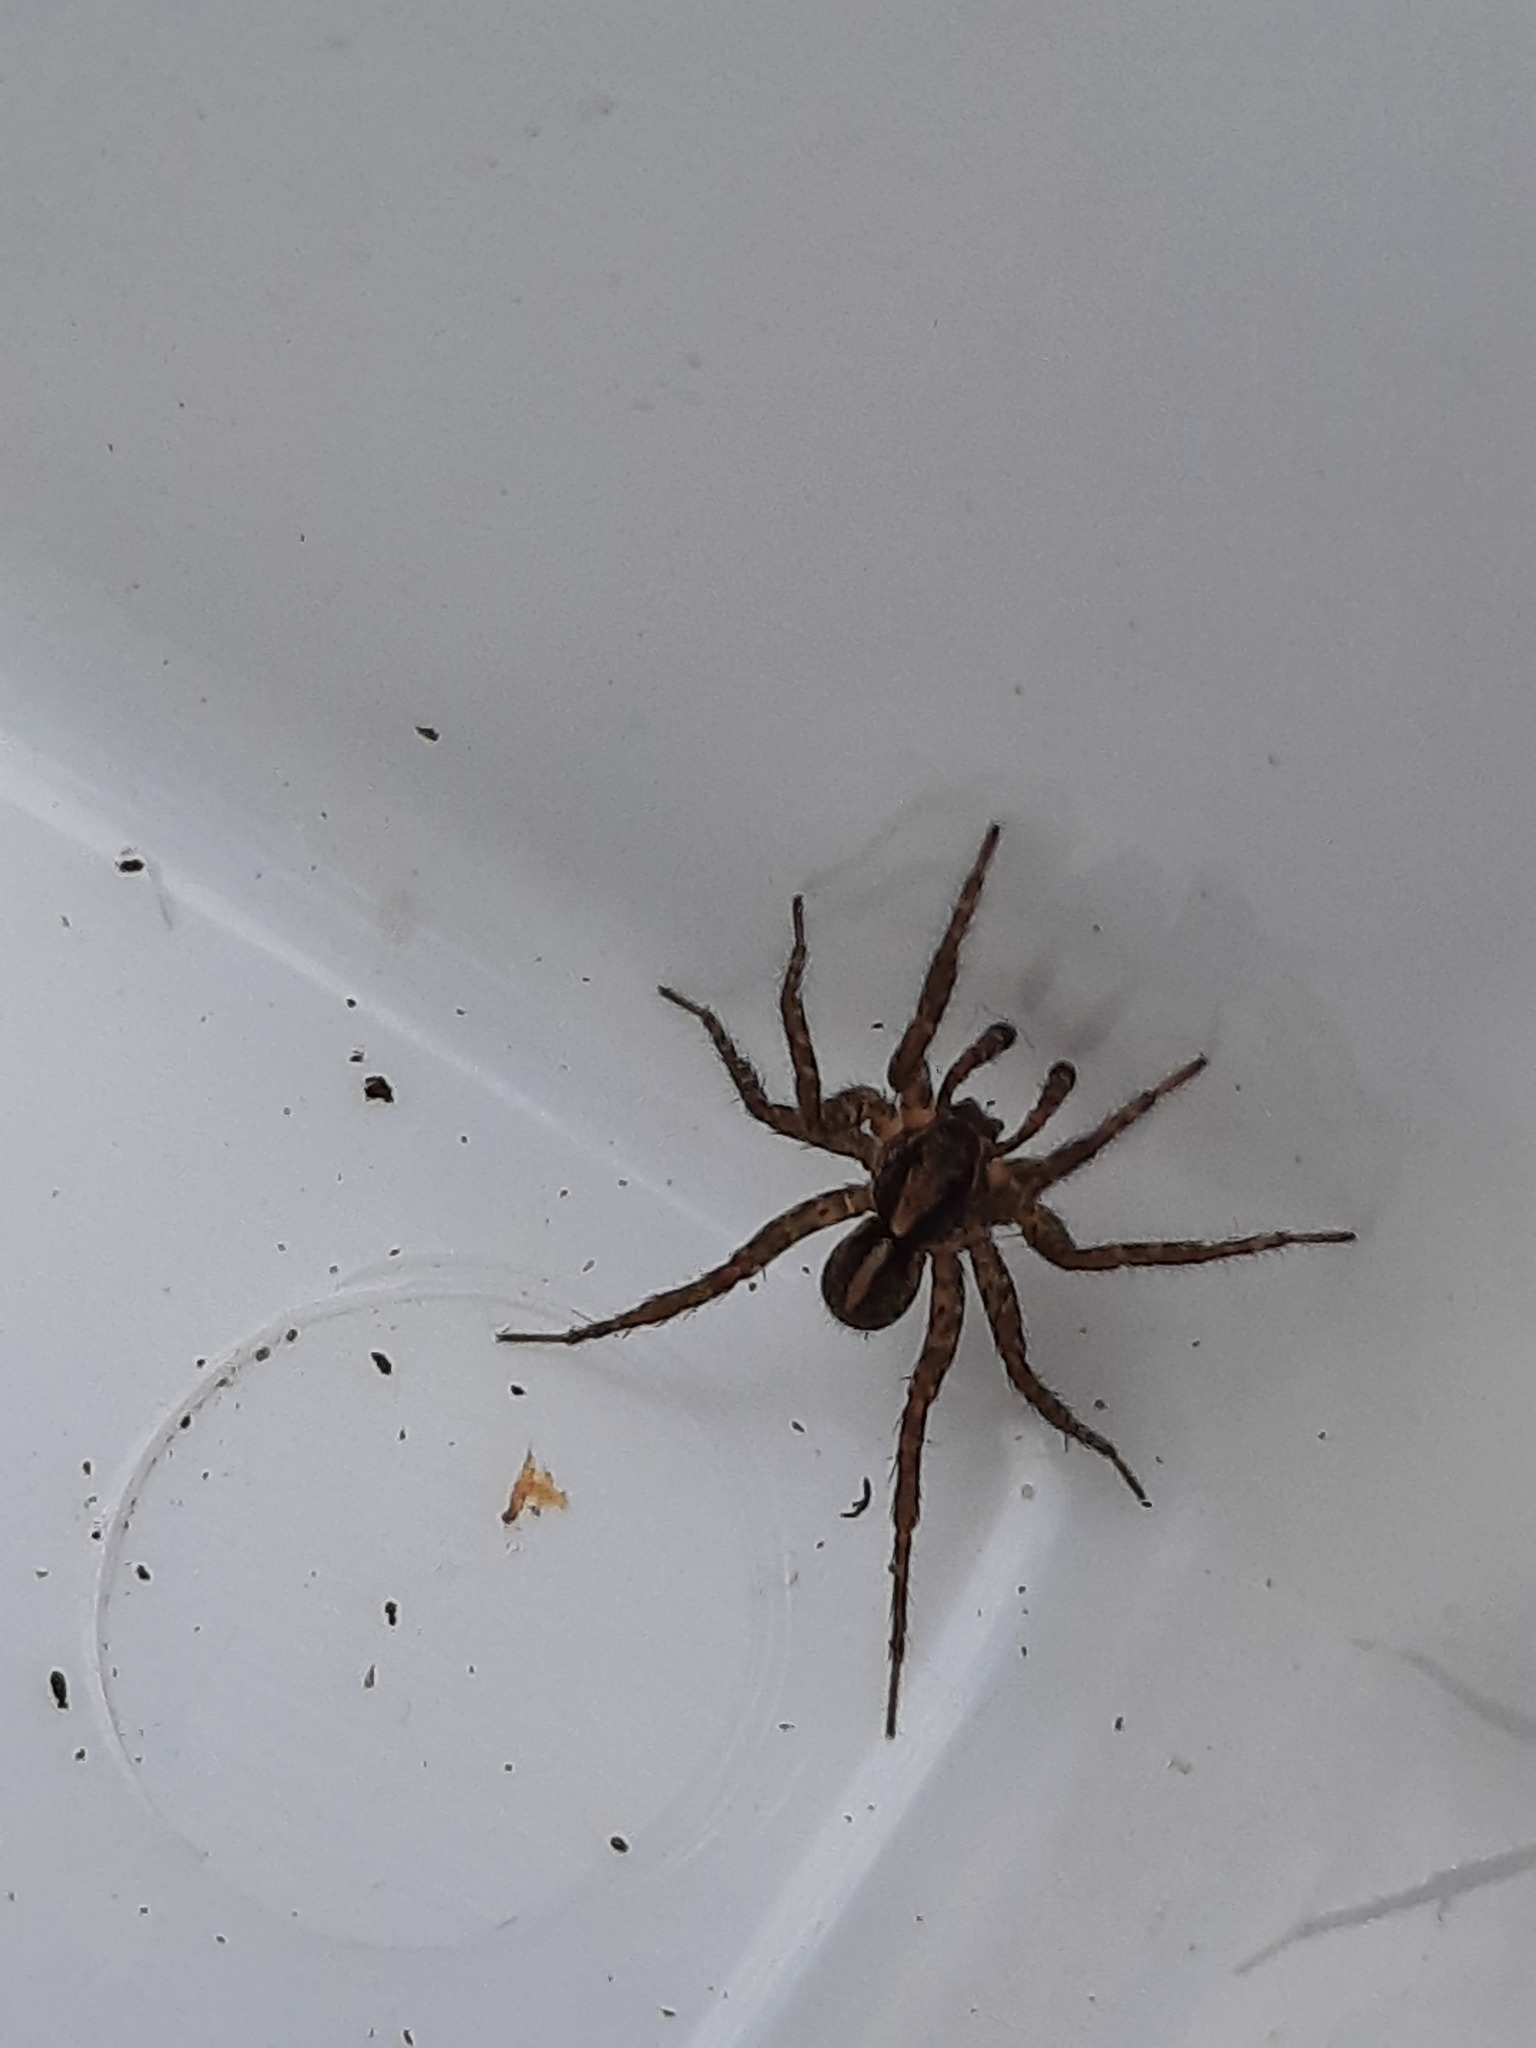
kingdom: Animalia
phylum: Arthropoda
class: Arachnida
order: Araneae
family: Lycosidae
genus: Anoteropsis
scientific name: Anoteropsis hilaris
